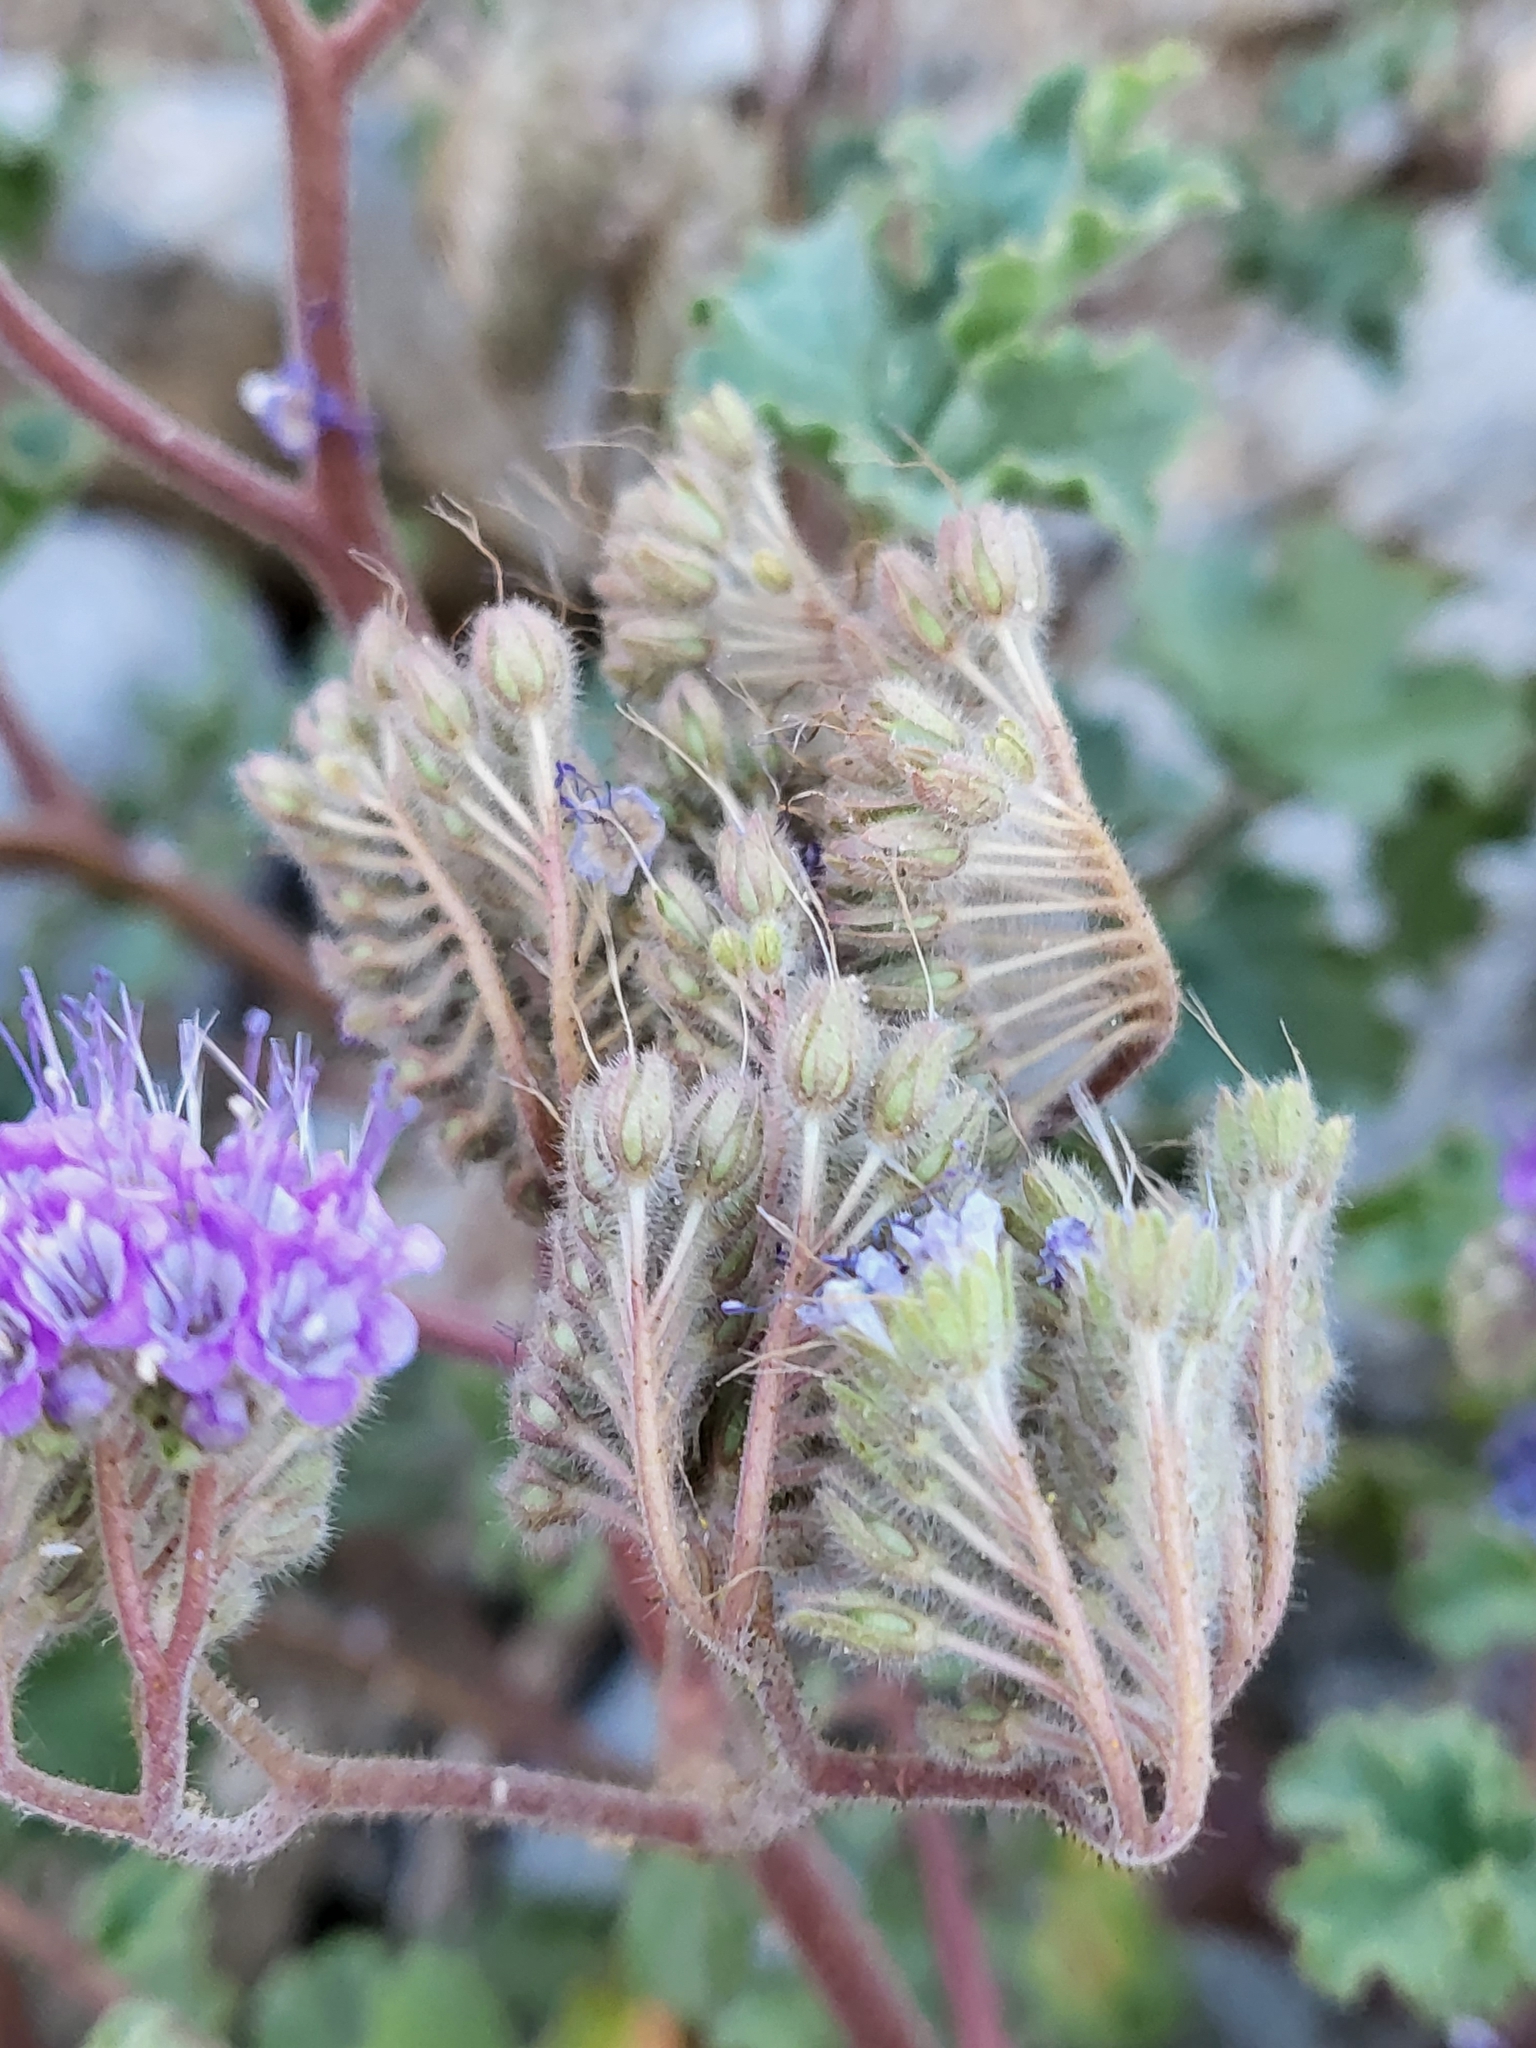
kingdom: Plantae
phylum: Tracheophyta
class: Magnoliopsida
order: Boraginales
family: Hydrophyllaceae
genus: Phacelia
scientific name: Phacelia pedicellata
